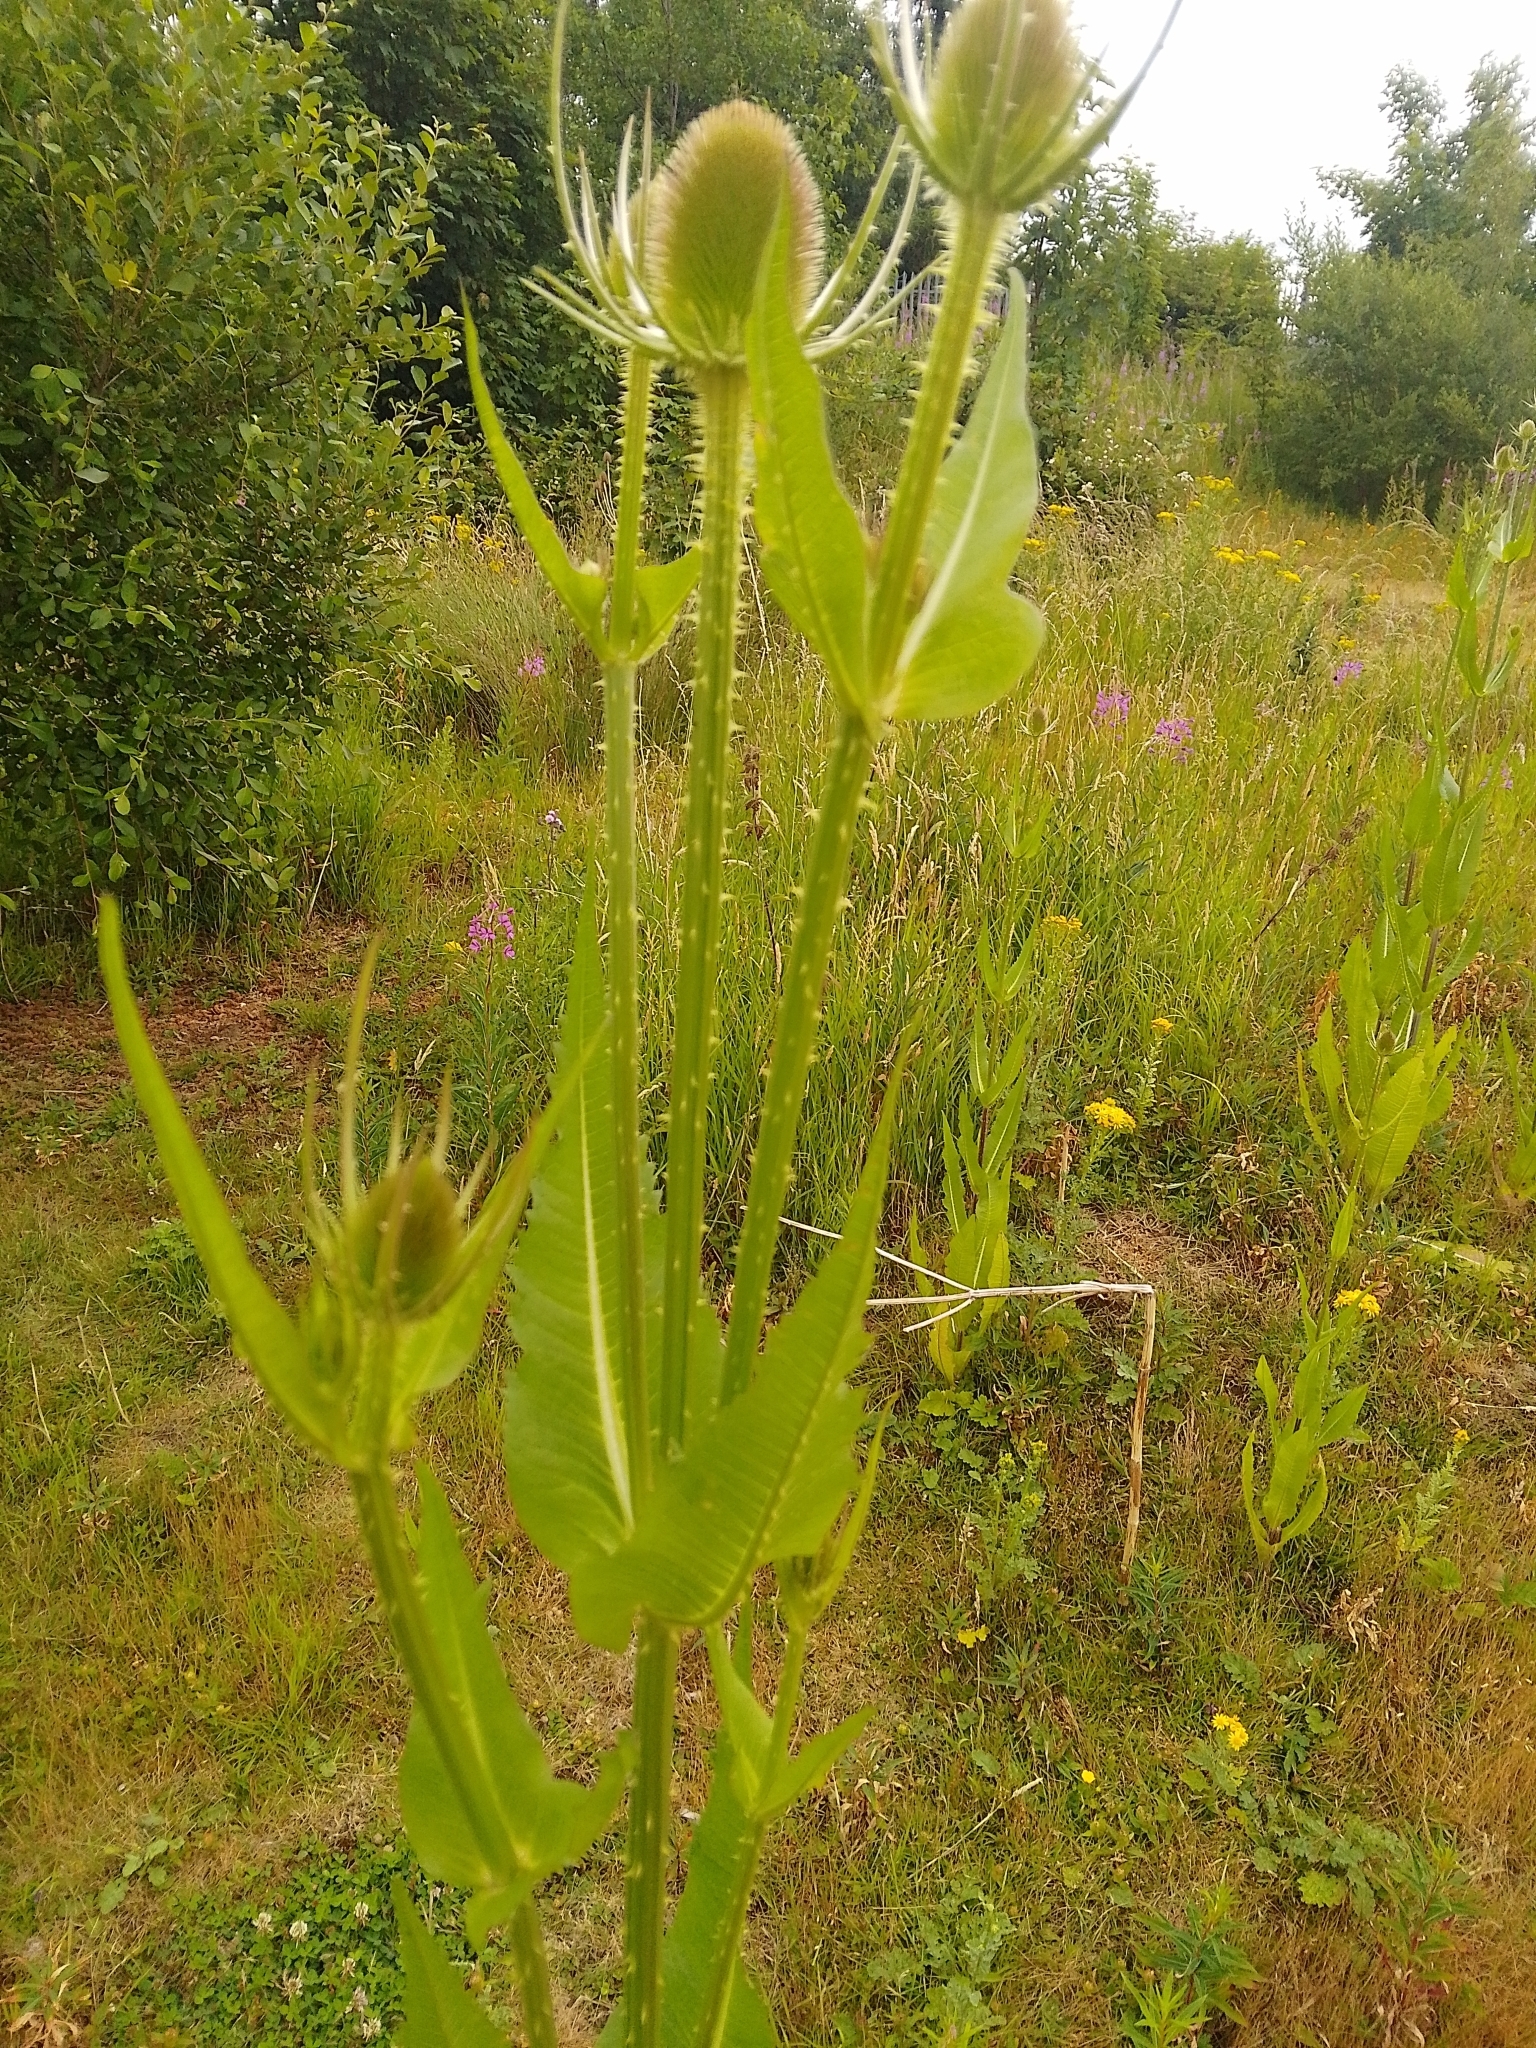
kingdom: Plantae
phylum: Tracheophyta
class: Magnoliopsida
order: Dipsacales
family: Caprifoliaceae
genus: Dipsacus
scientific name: Dipsacus fullonum
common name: Teasel
